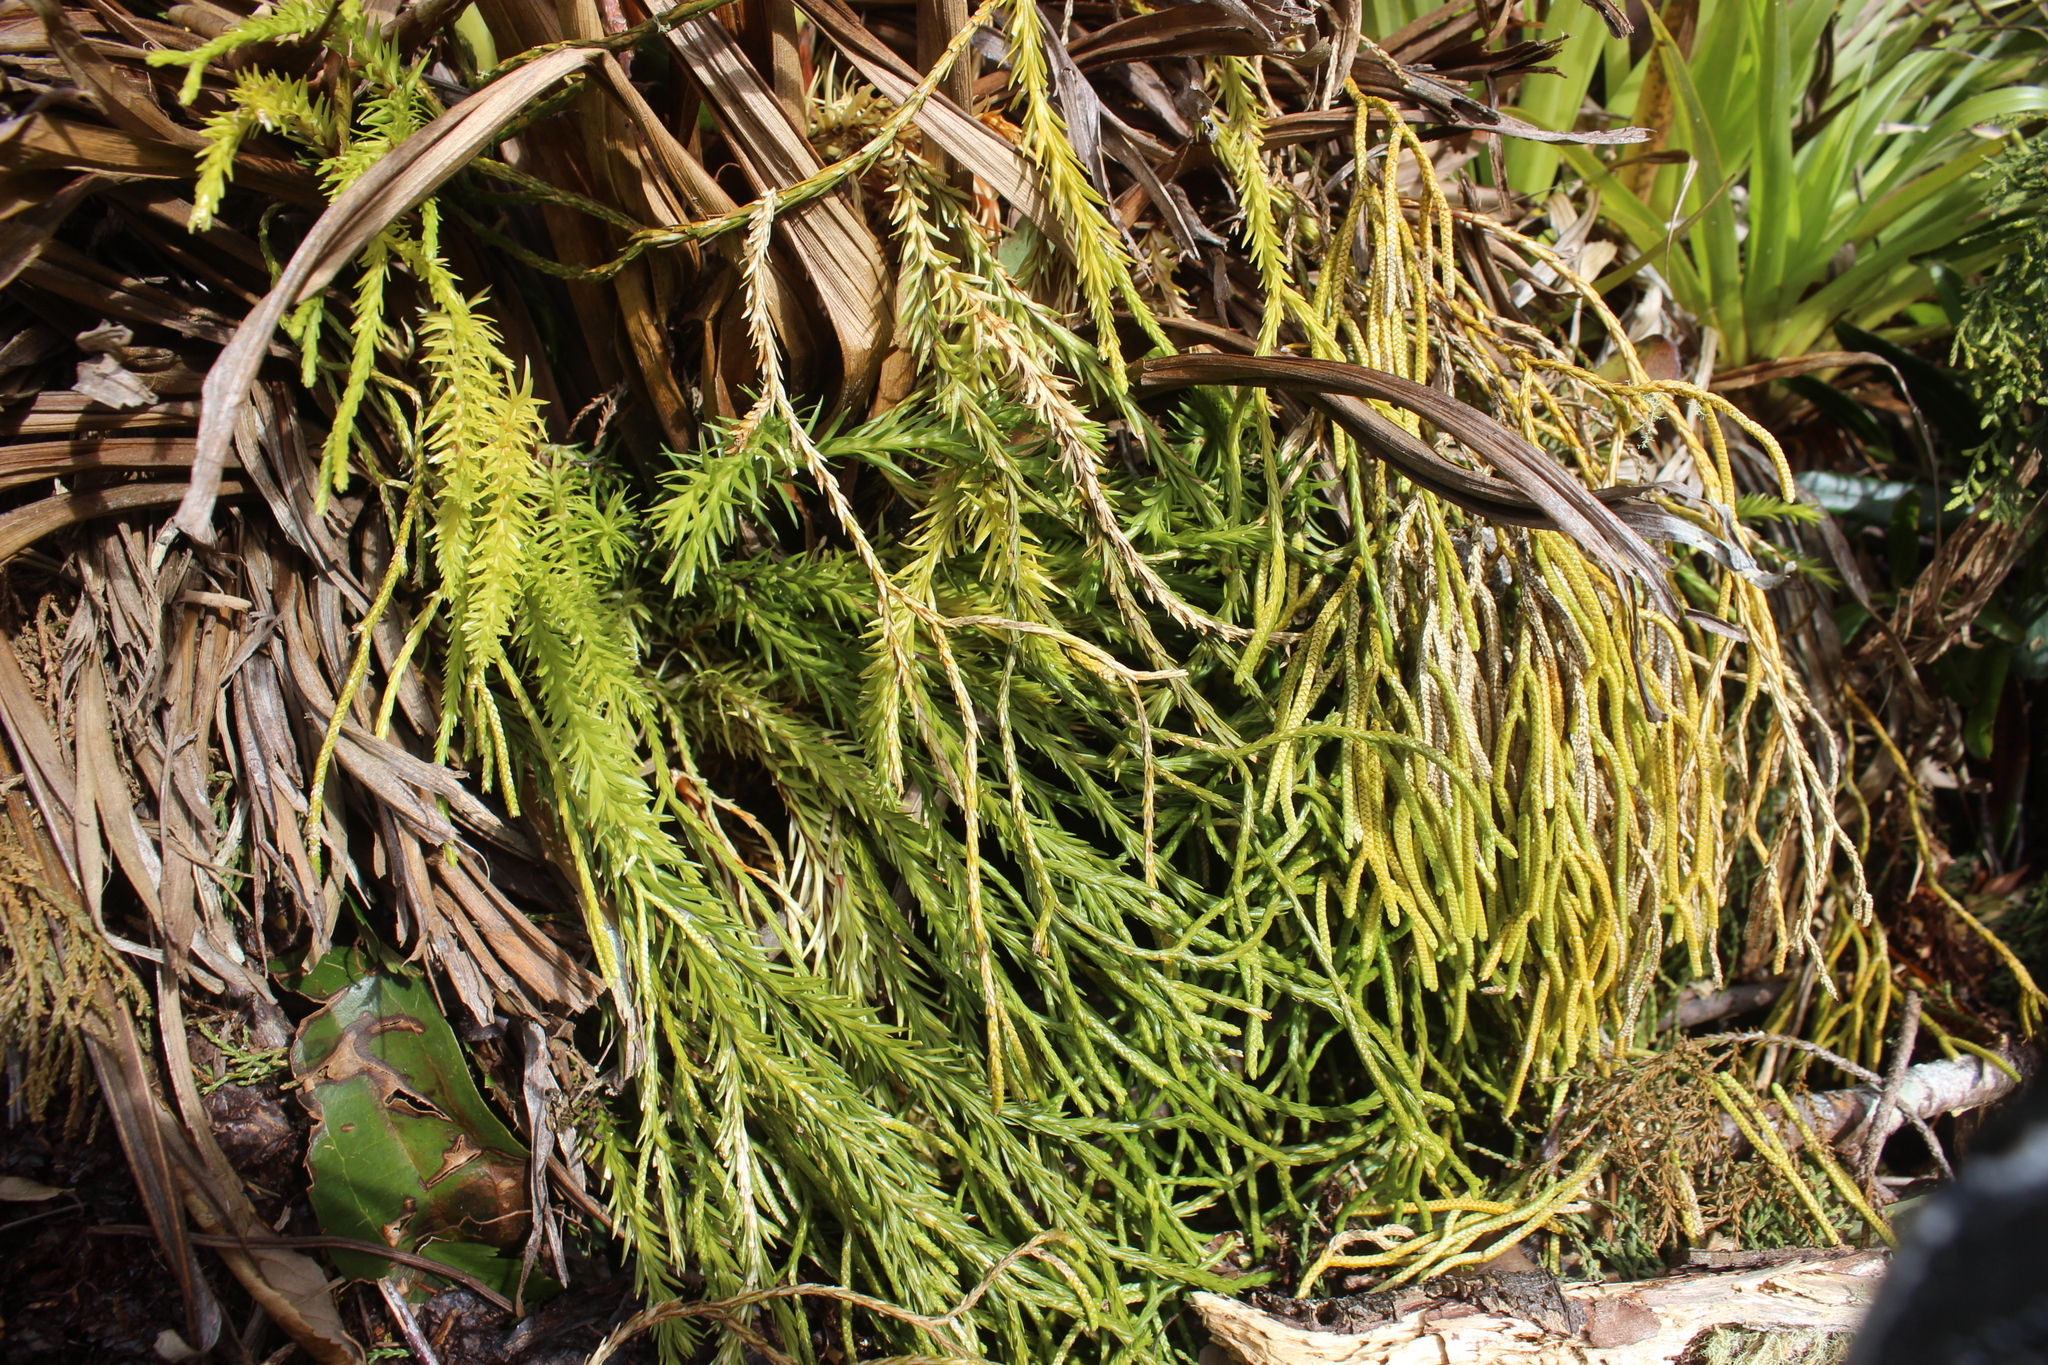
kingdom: Plantae
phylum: Tracheophyta
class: Lycopodiopsida
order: Lycopodiales
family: Lycopodiaceae
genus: Phlegmariurus
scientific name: Phlegmariurus billardierei
